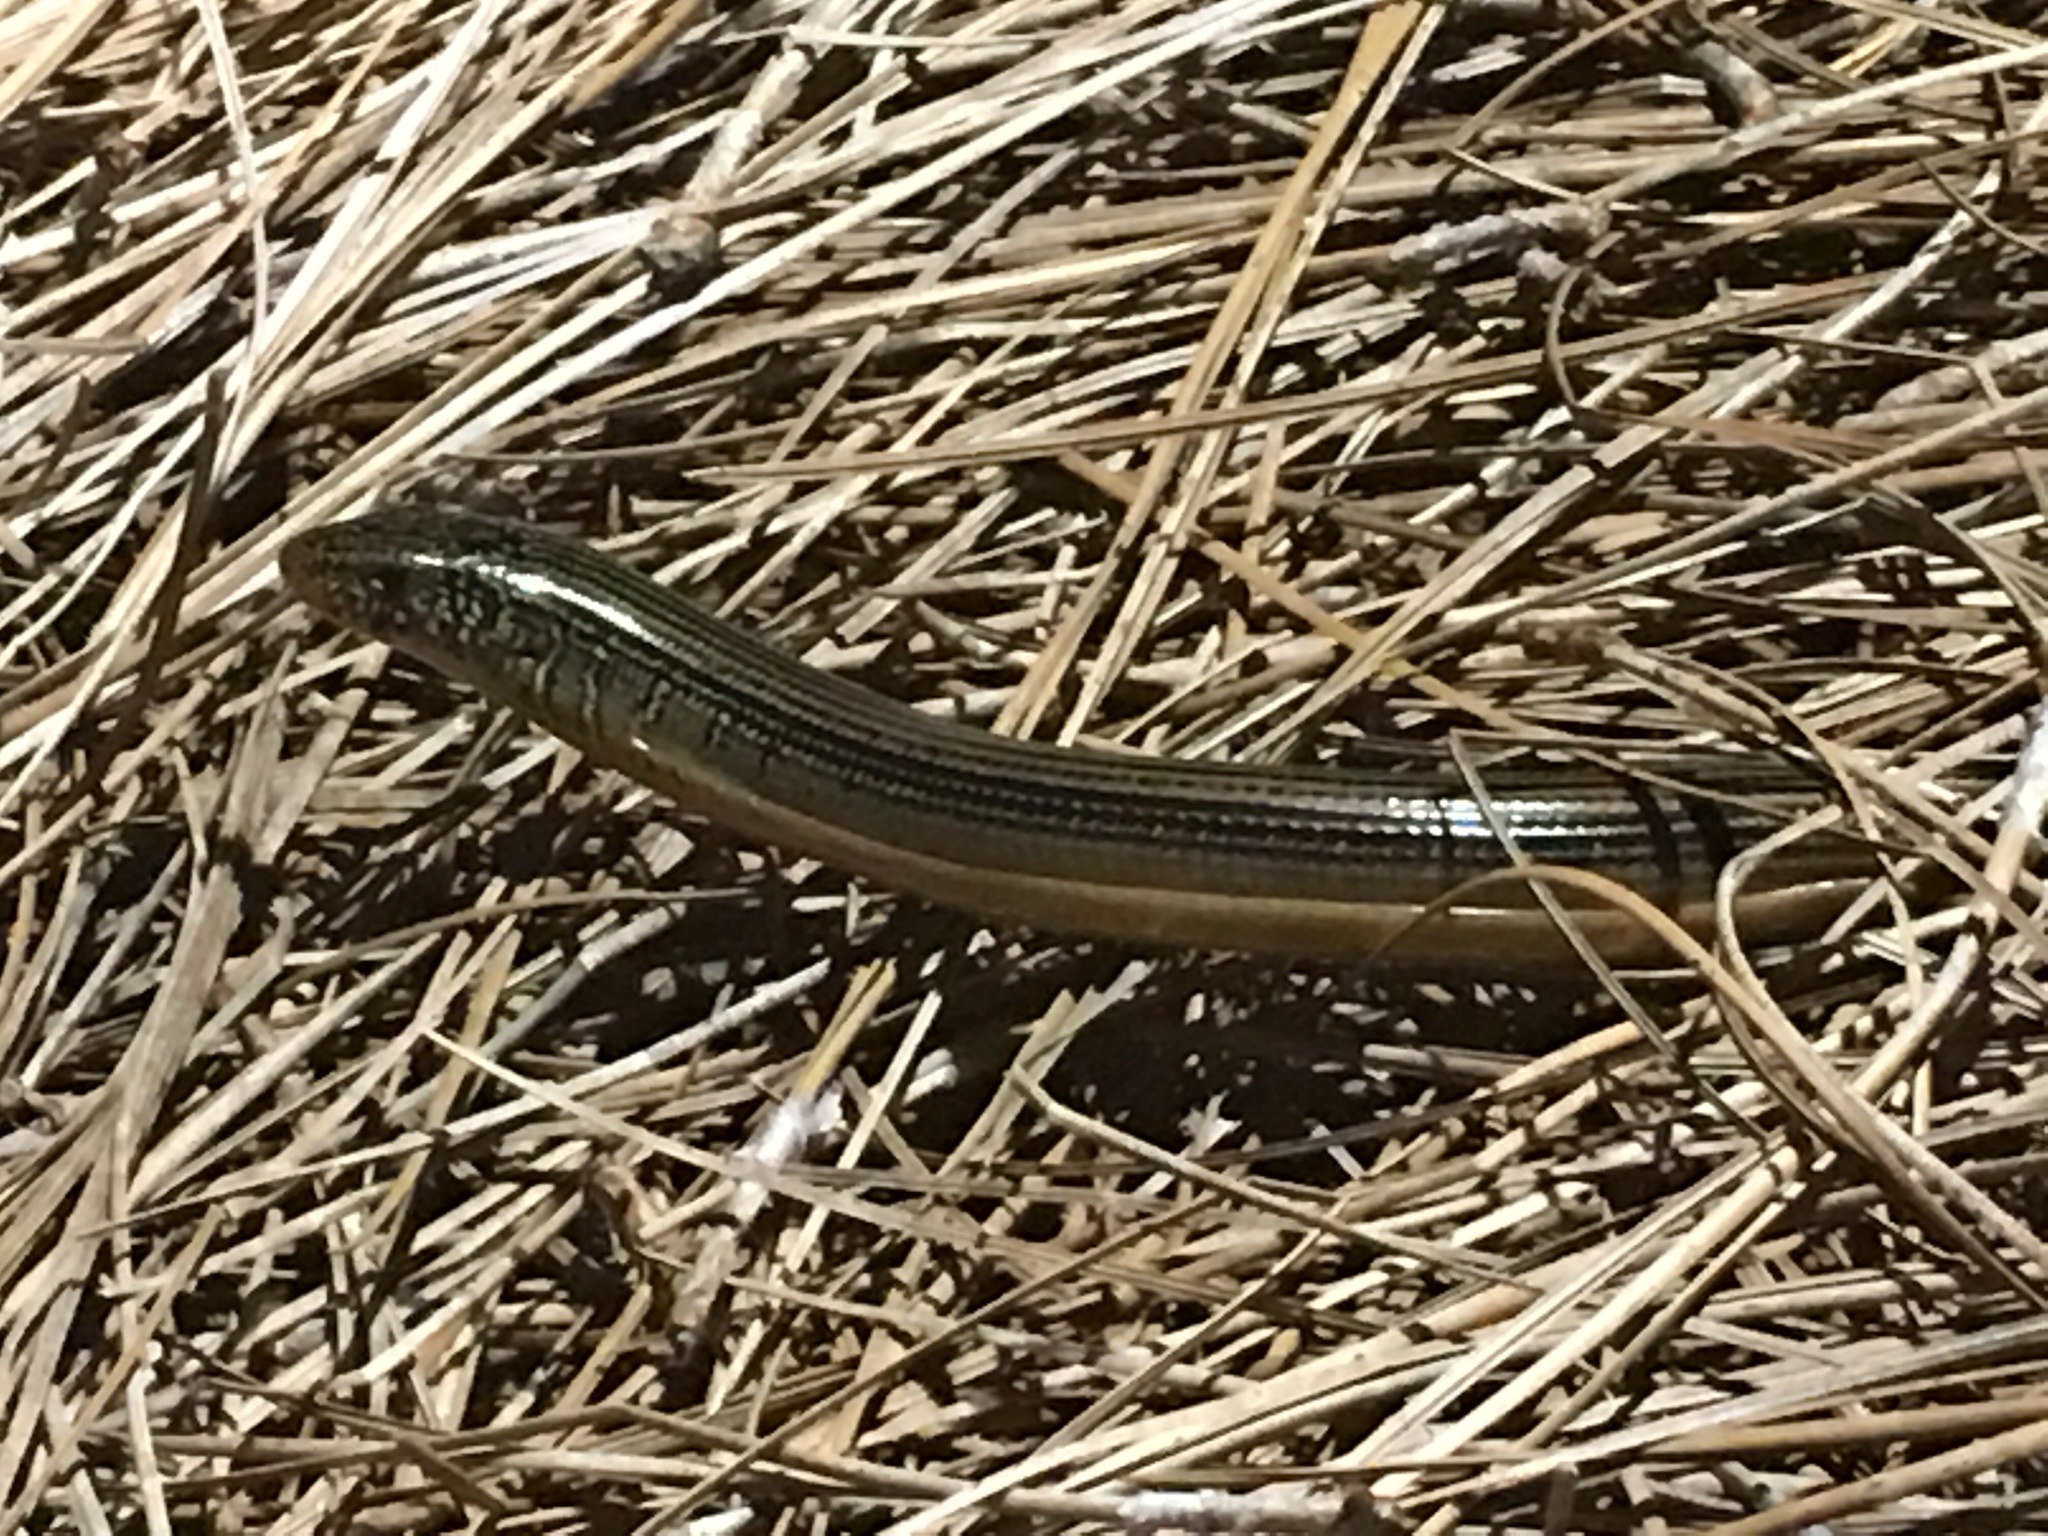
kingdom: Animalia
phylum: Chordata
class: Squamata
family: Anguidae
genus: Ophisaurus
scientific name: Ophisaurus ventralis
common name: Eastern glass lizard
